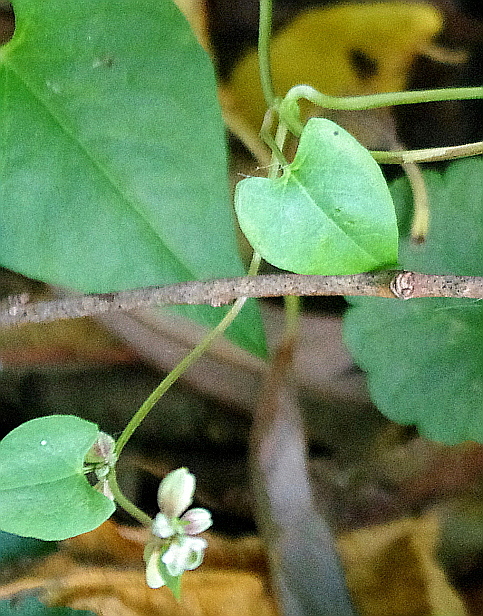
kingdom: Plantae
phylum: Tracheophyta
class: Magnoliopsida
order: Caryophyllales
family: Polygonaceae
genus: Fallopia
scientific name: Fallopia convolvulus
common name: Black bindweed
